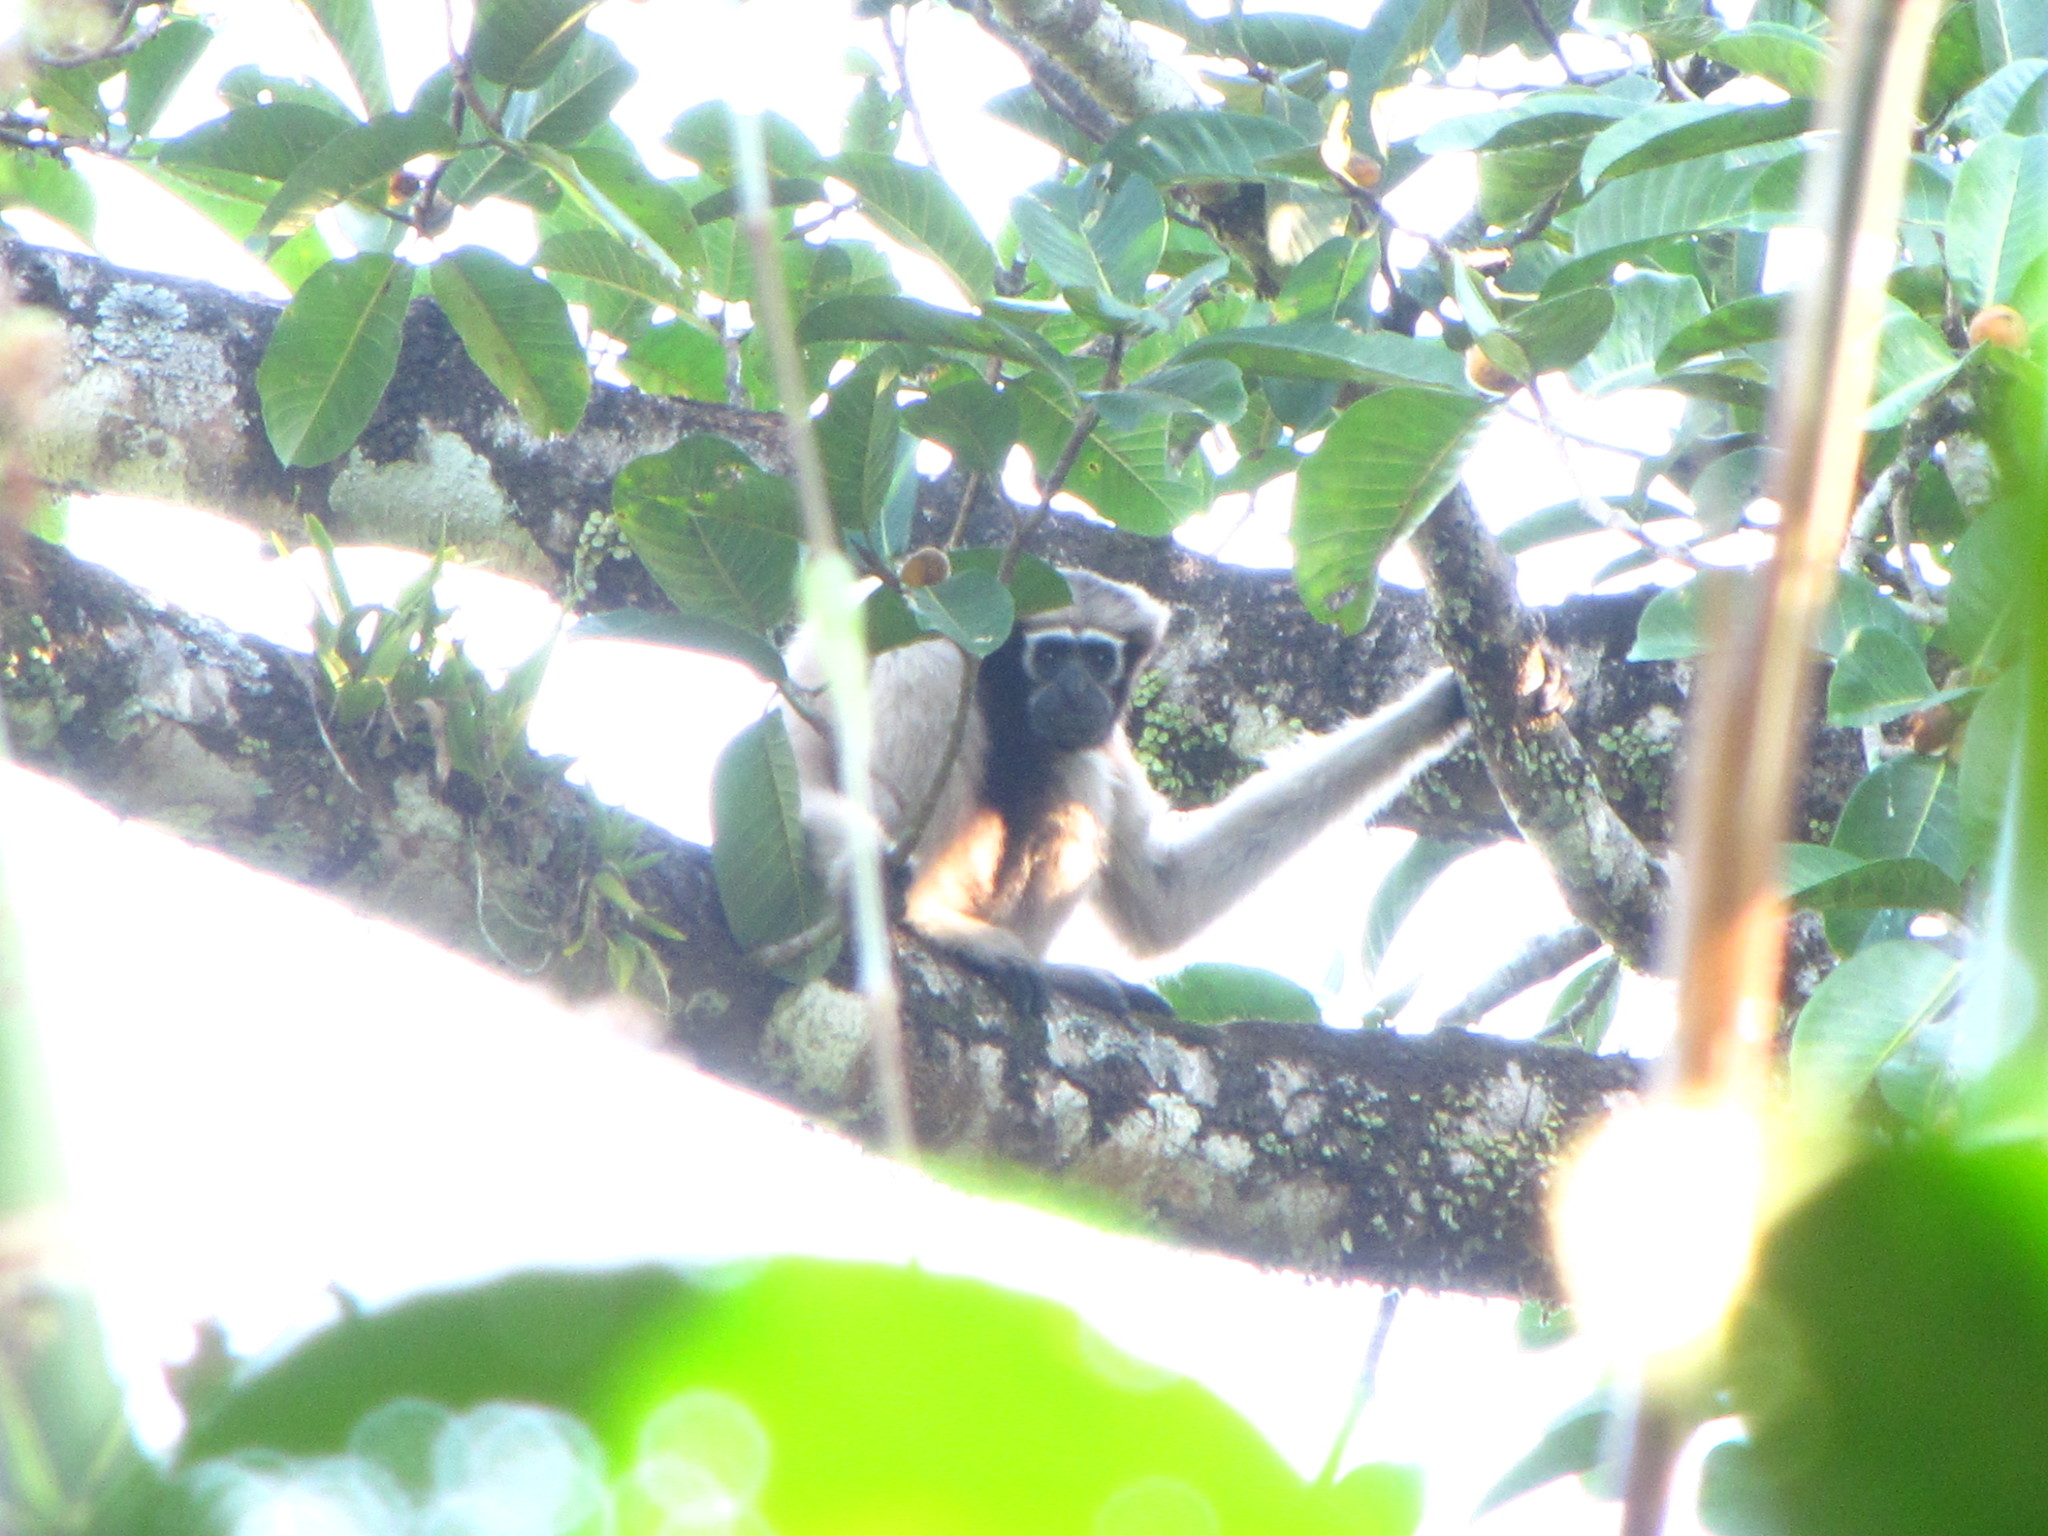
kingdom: Animalia
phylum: Chordata
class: Mammalia
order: Primates
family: Hylobatidae
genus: Hoolock
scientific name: Hoolock hoolock
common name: Western hoolock gibbon
